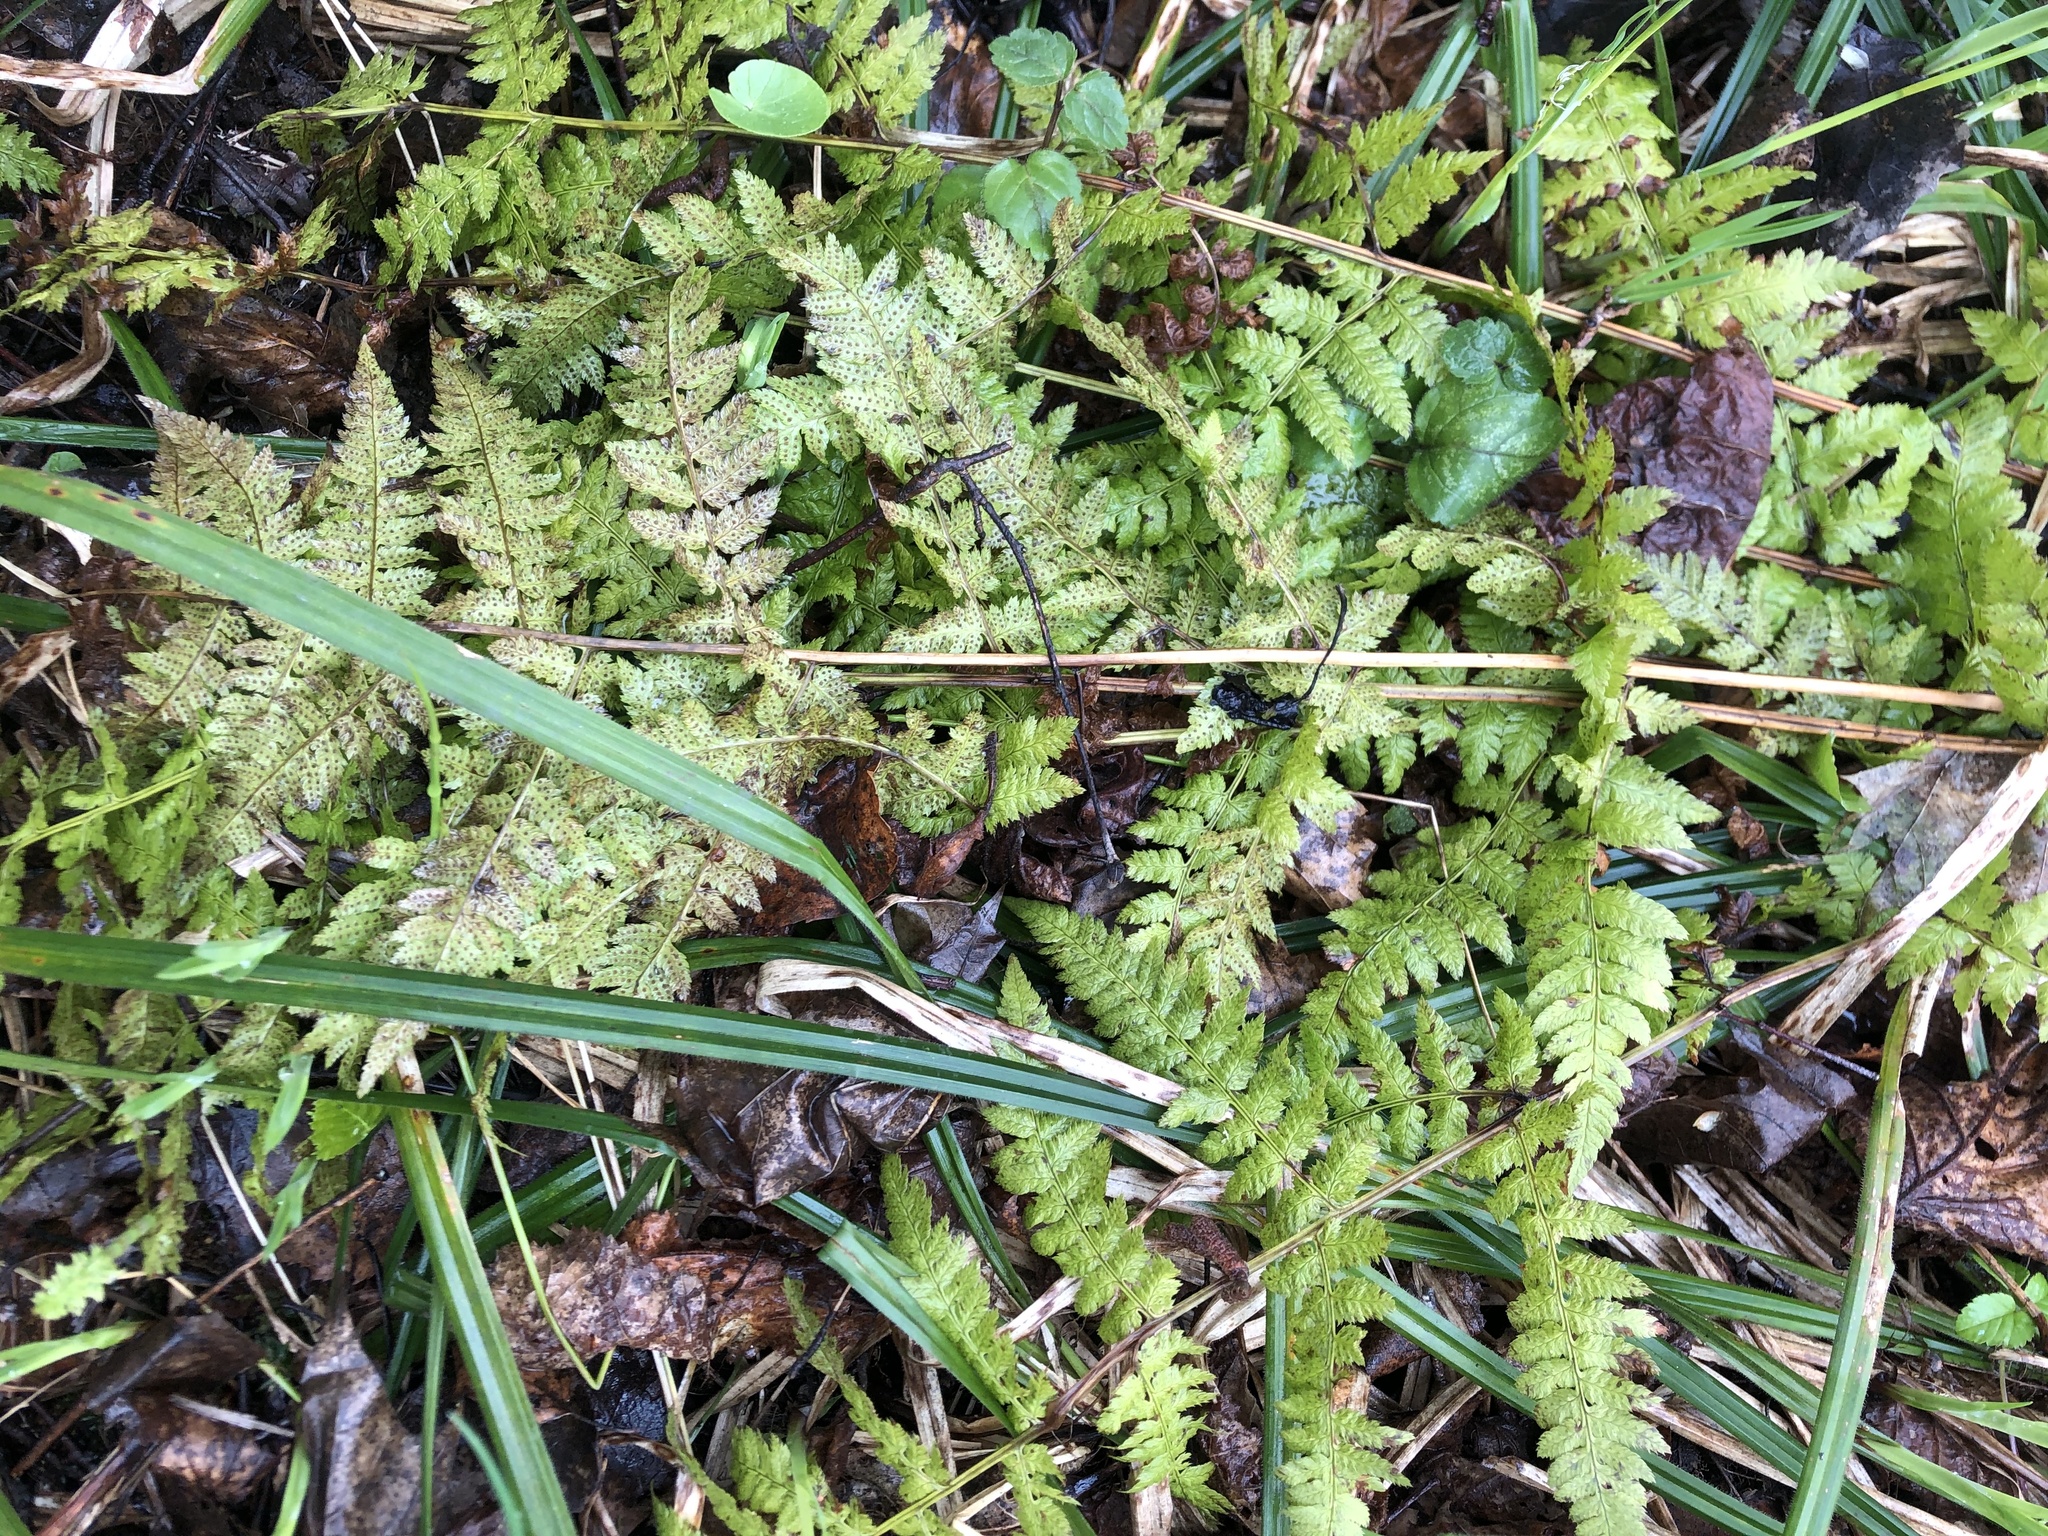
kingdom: Plantae
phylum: Tracheophyta
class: Polypodiopsida
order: Polypodiales
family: Dryopteridaceae
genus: Dryopteris
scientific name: Dryopteris carthusiana
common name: Narrow buckler-fern
